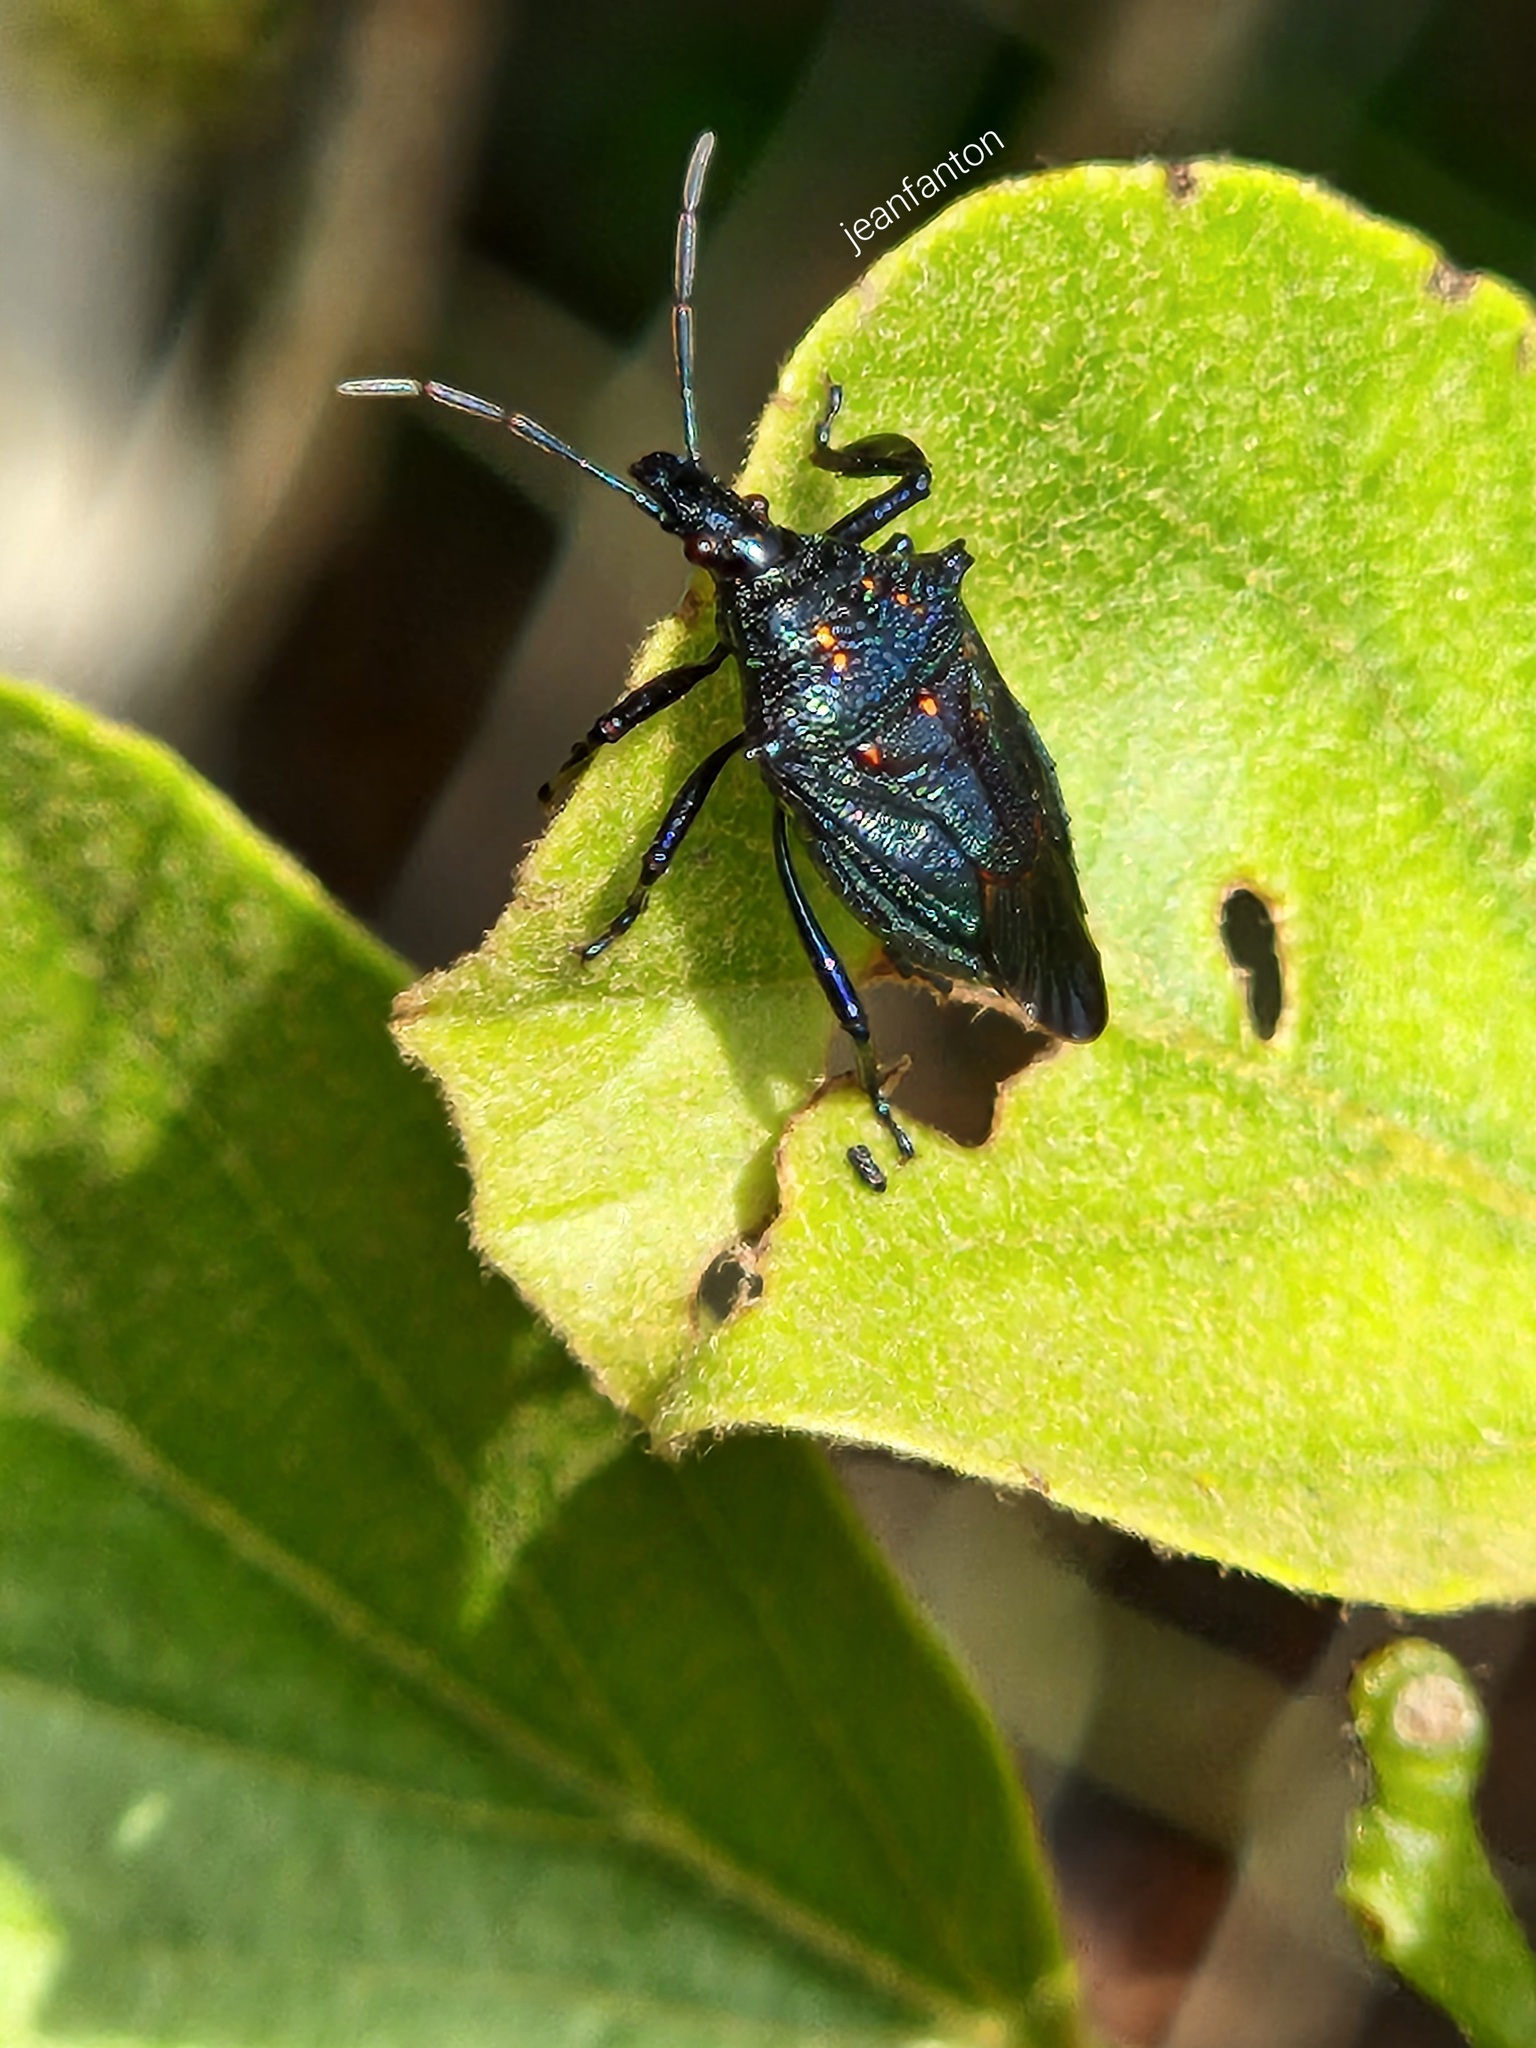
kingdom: Animalia
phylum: Arthropoda
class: Insecta
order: Hemiptera
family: Pentatomidae
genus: Heteroscelis
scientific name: Heteroscelis servillii
